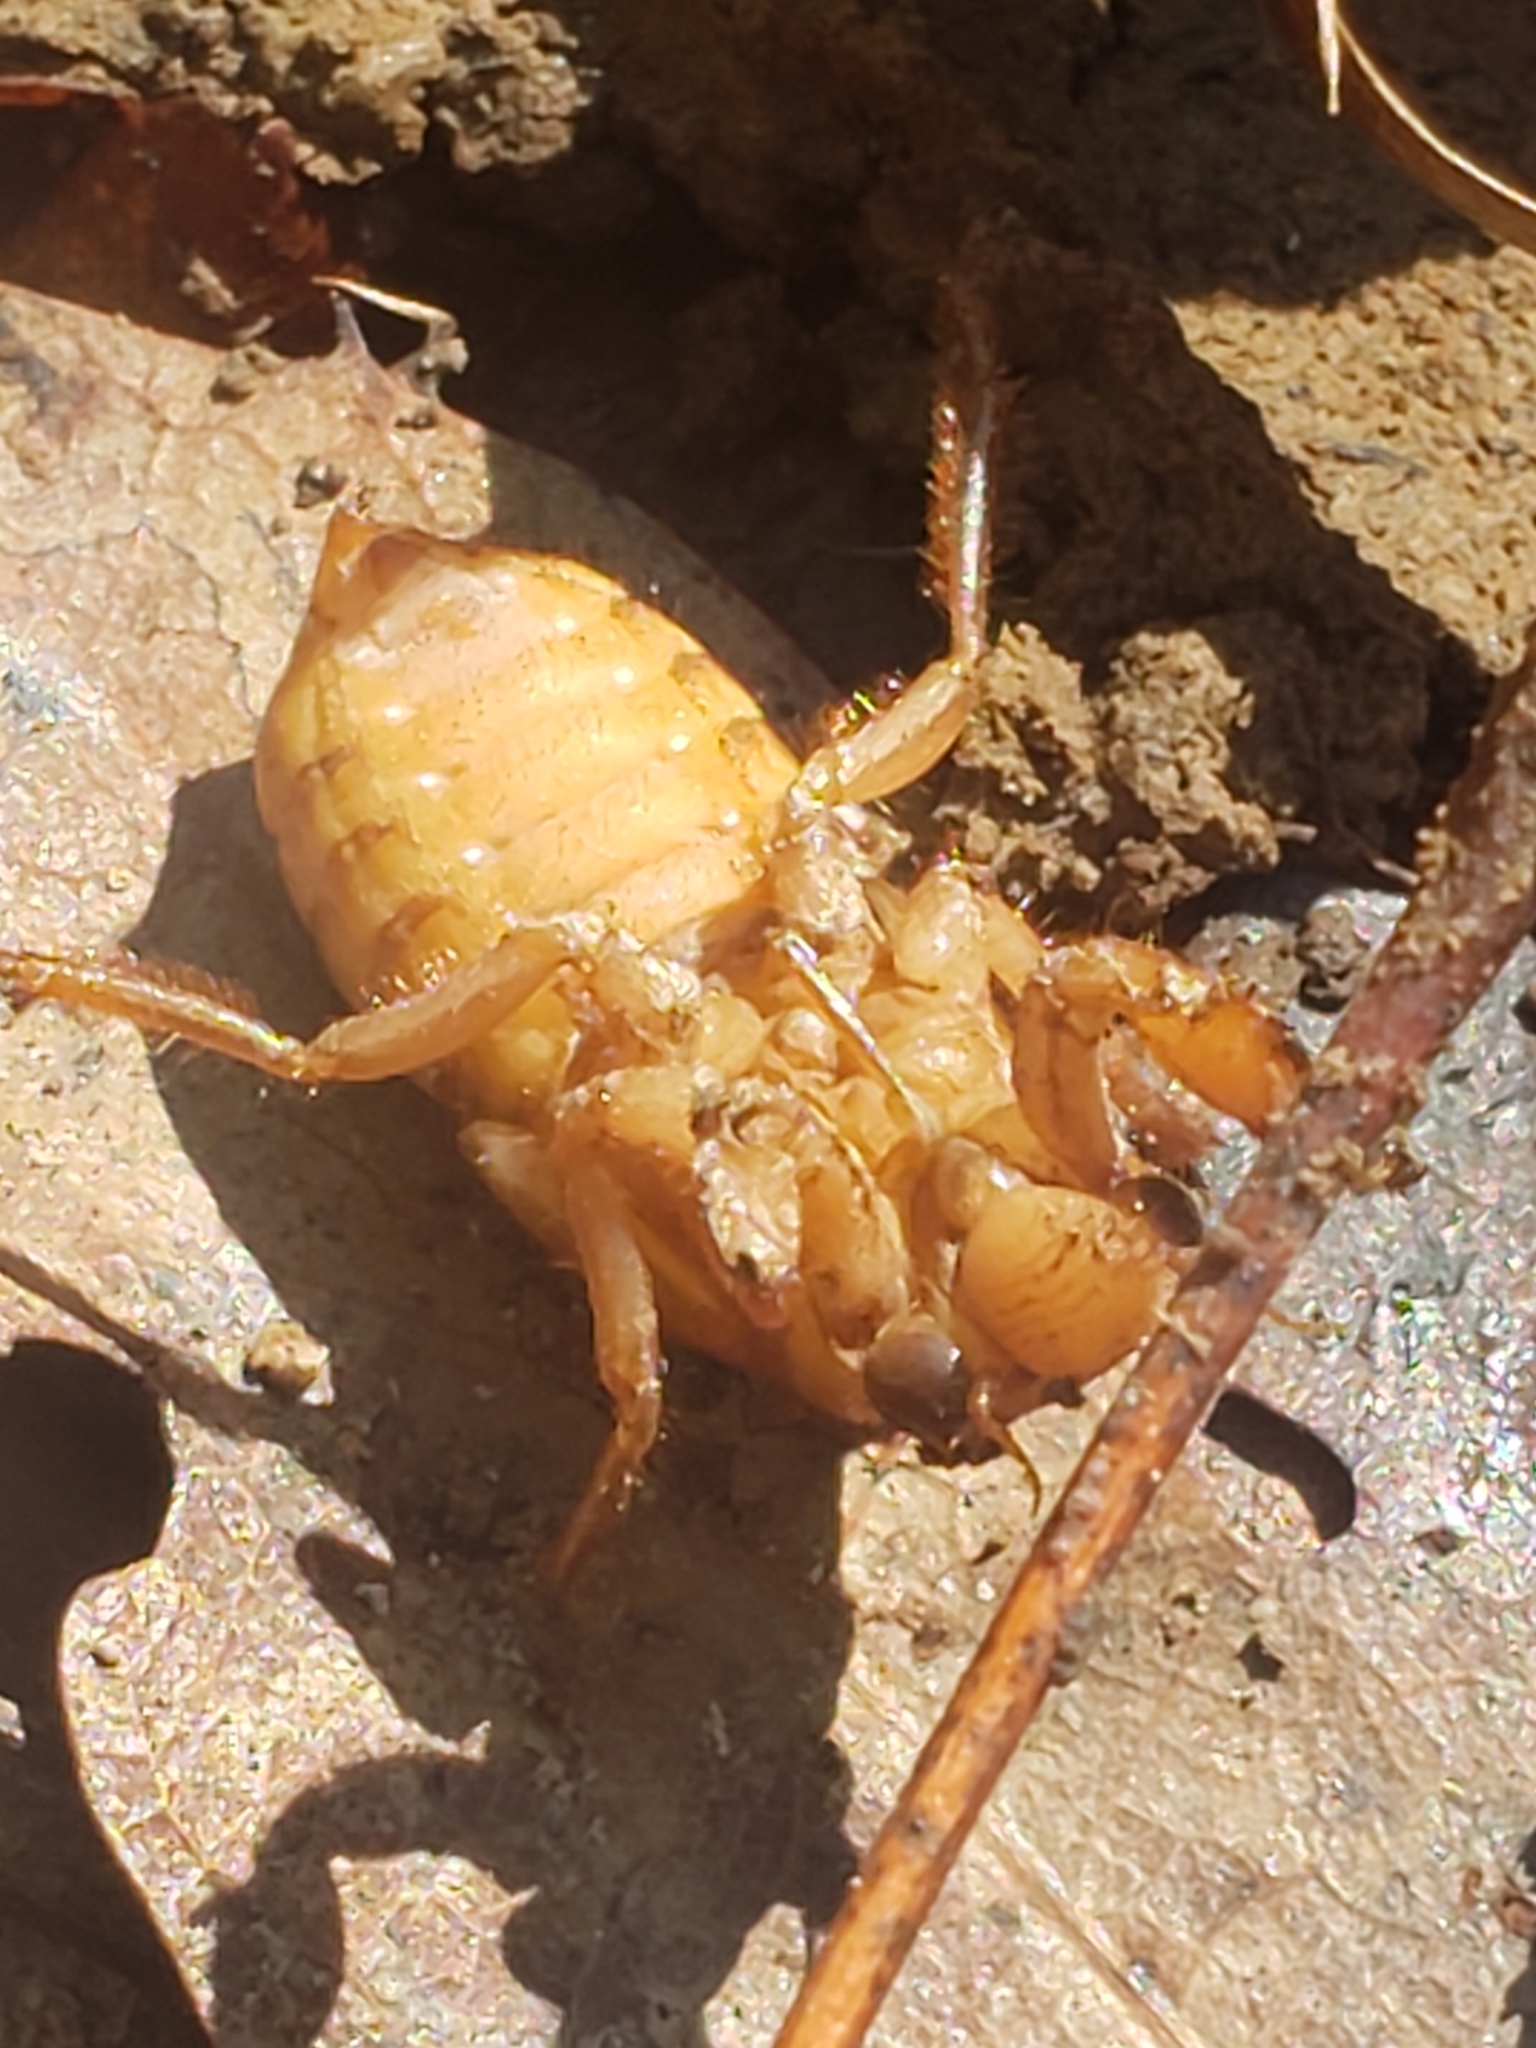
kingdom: Animalia
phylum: Arthropoda
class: Insecta
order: Hemiptera
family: Cicadidae
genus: Magicicada
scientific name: Magicicada
